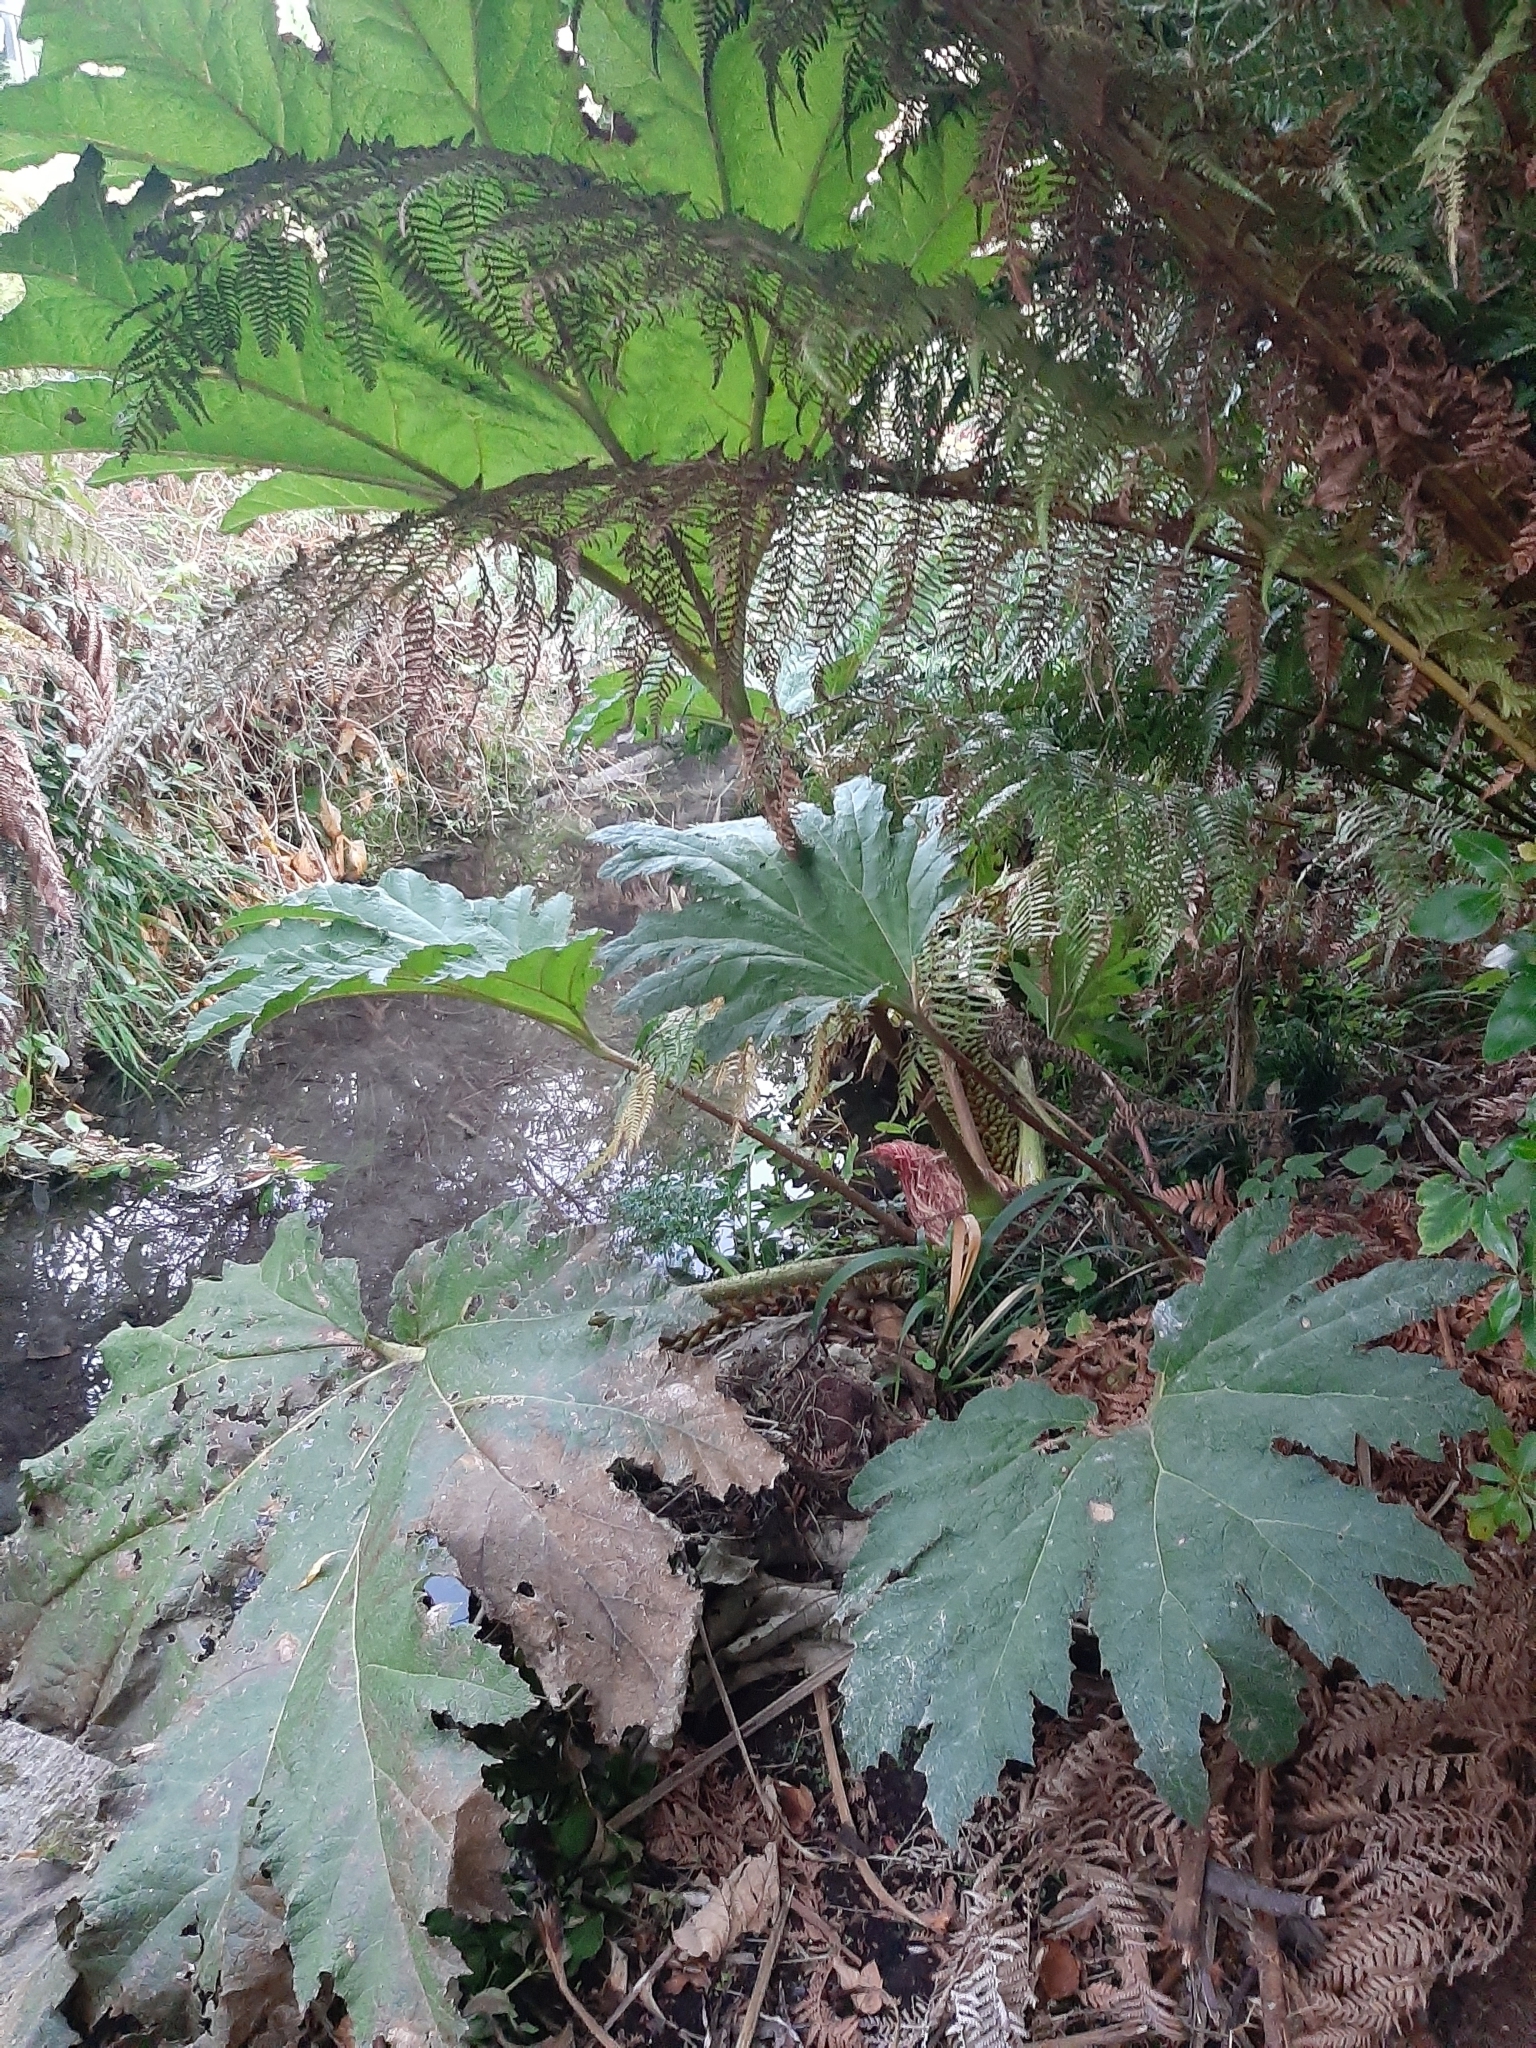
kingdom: Plantae
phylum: Tracheophyta
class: Magnoliopsida
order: Gunnerales
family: Gunneraceae
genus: Gunnera
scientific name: Gunnera tinctoria
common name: Giant-rhubarb
